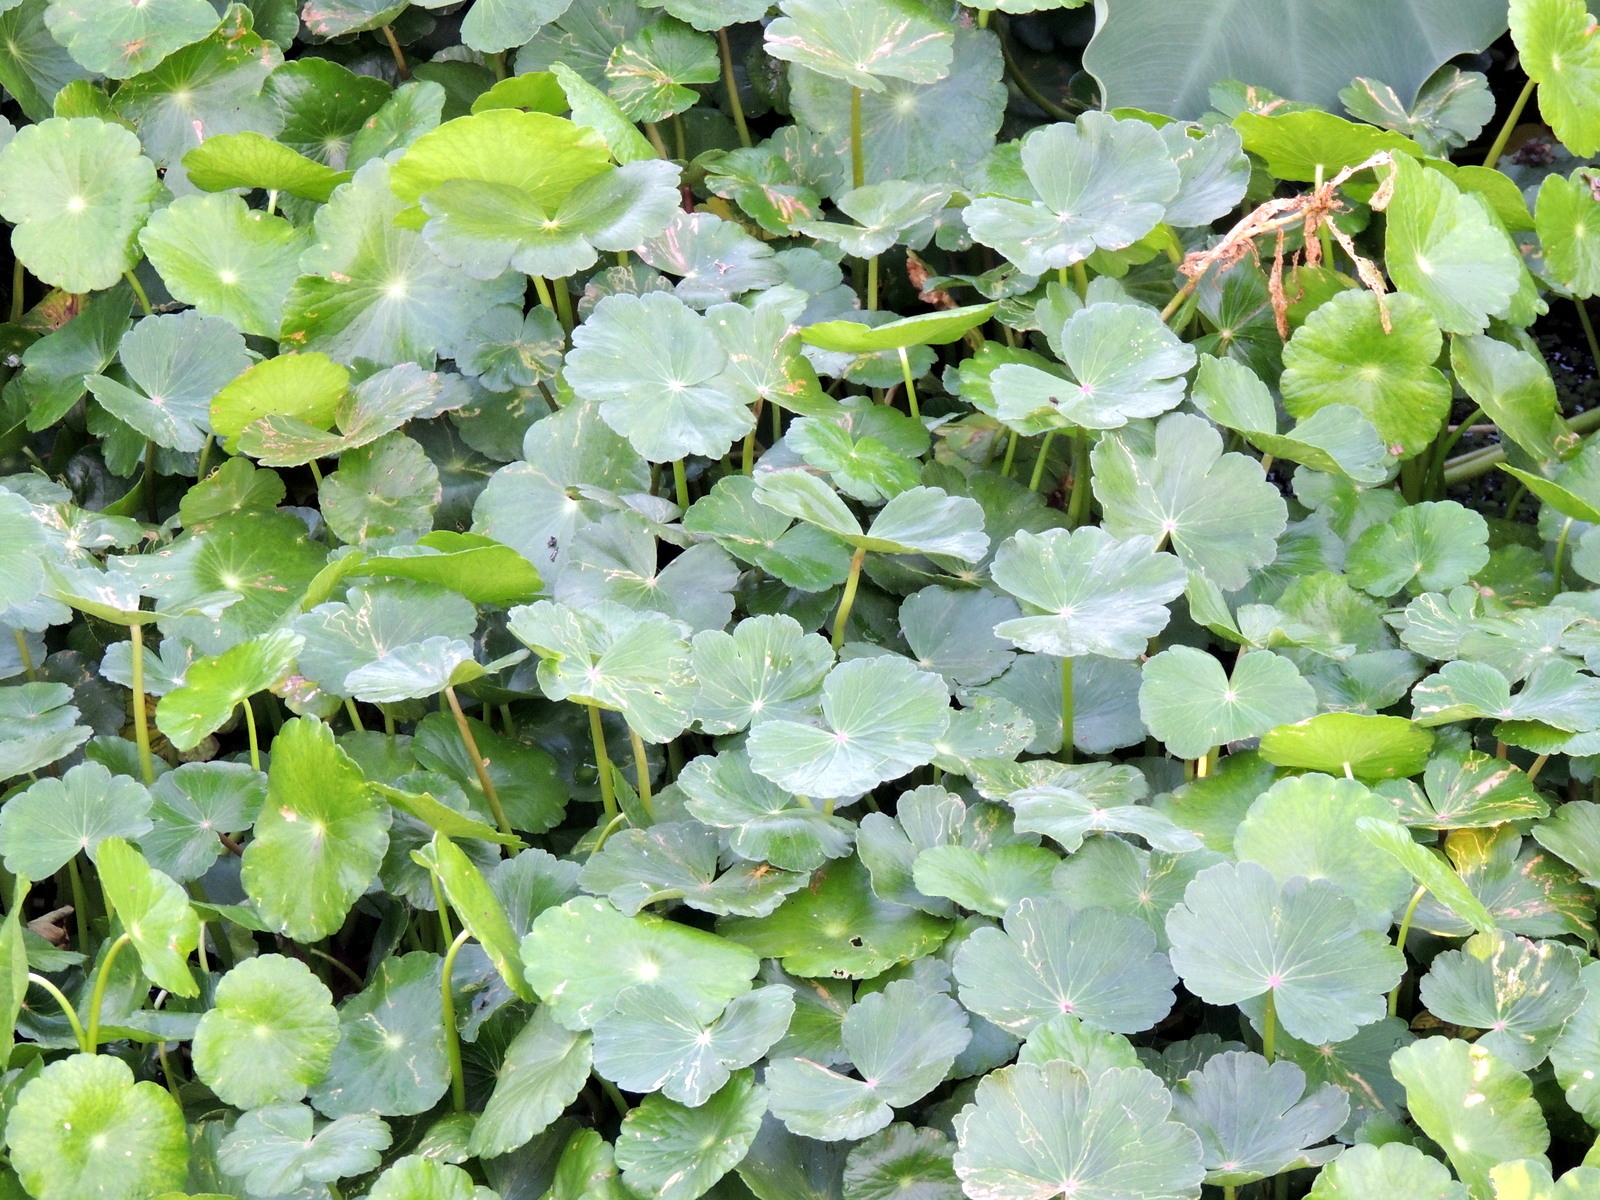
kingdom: Plantae
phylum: Tracheophyta
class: Magnoliopsida
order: Apiales
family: Araliaceae
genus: Hydrocotyle
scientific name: Hydrocotyle ranunculoides
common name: Floating pennywort
